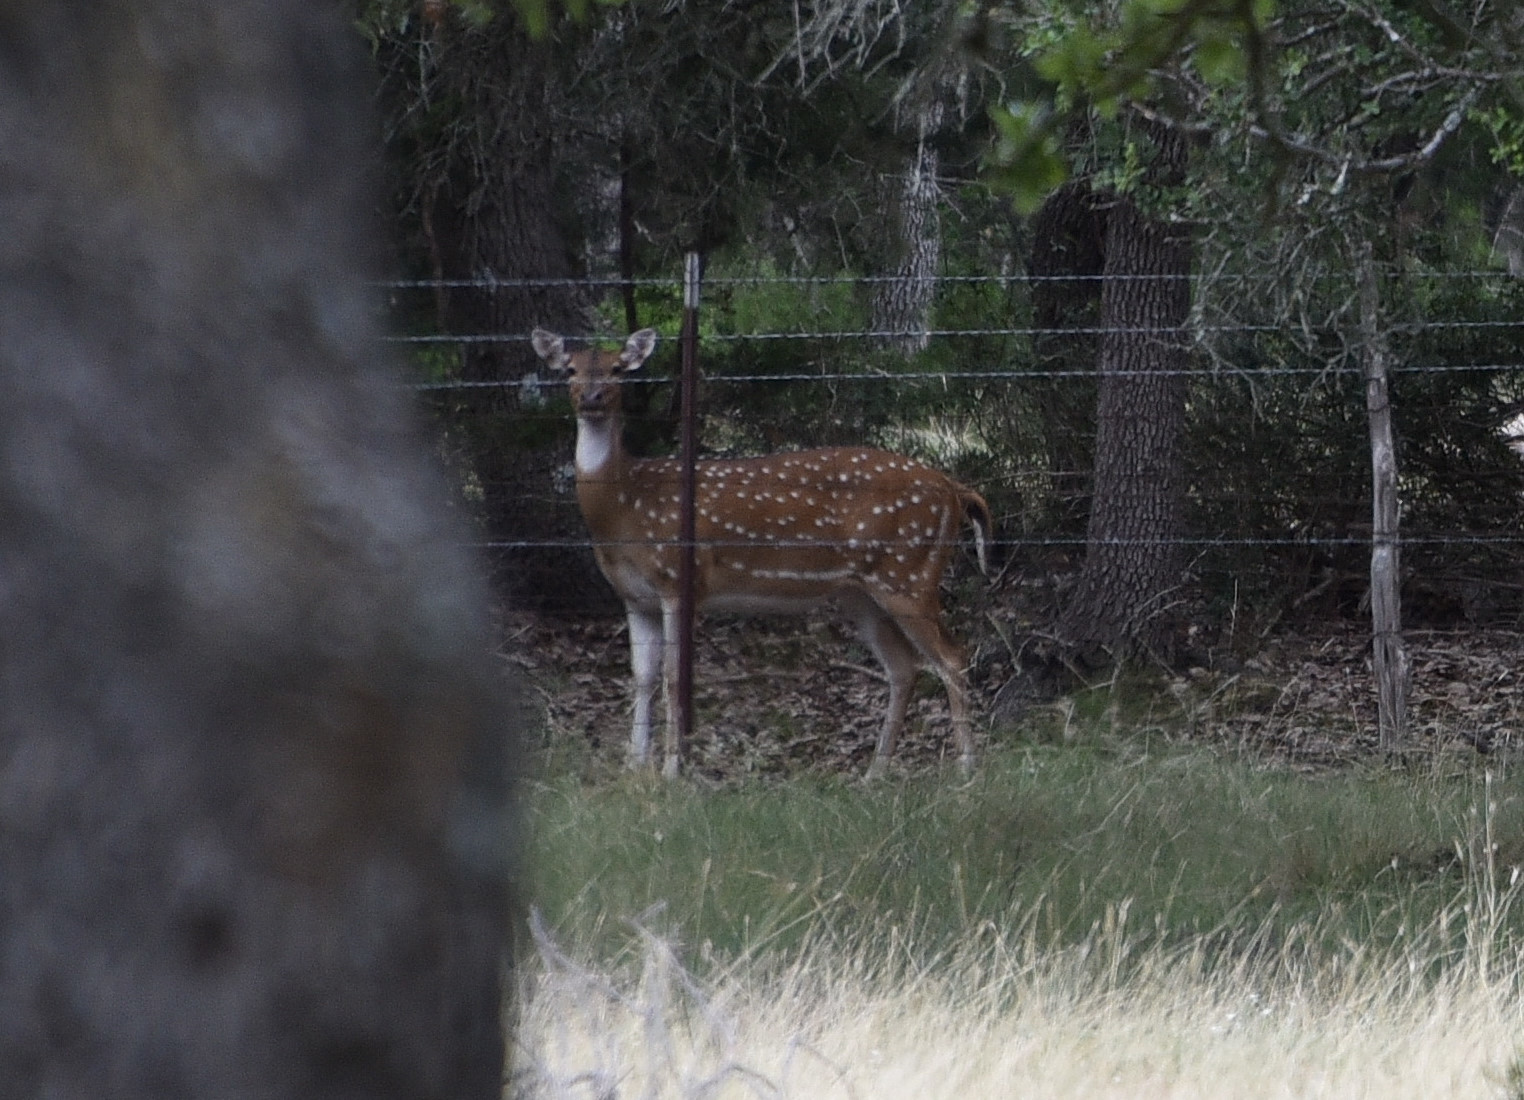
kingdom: Animalia
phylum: Chordata
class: Mammalia
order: Artiodactyla
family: Cervidae
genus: Axis
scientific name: Axis axis
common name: Chital
